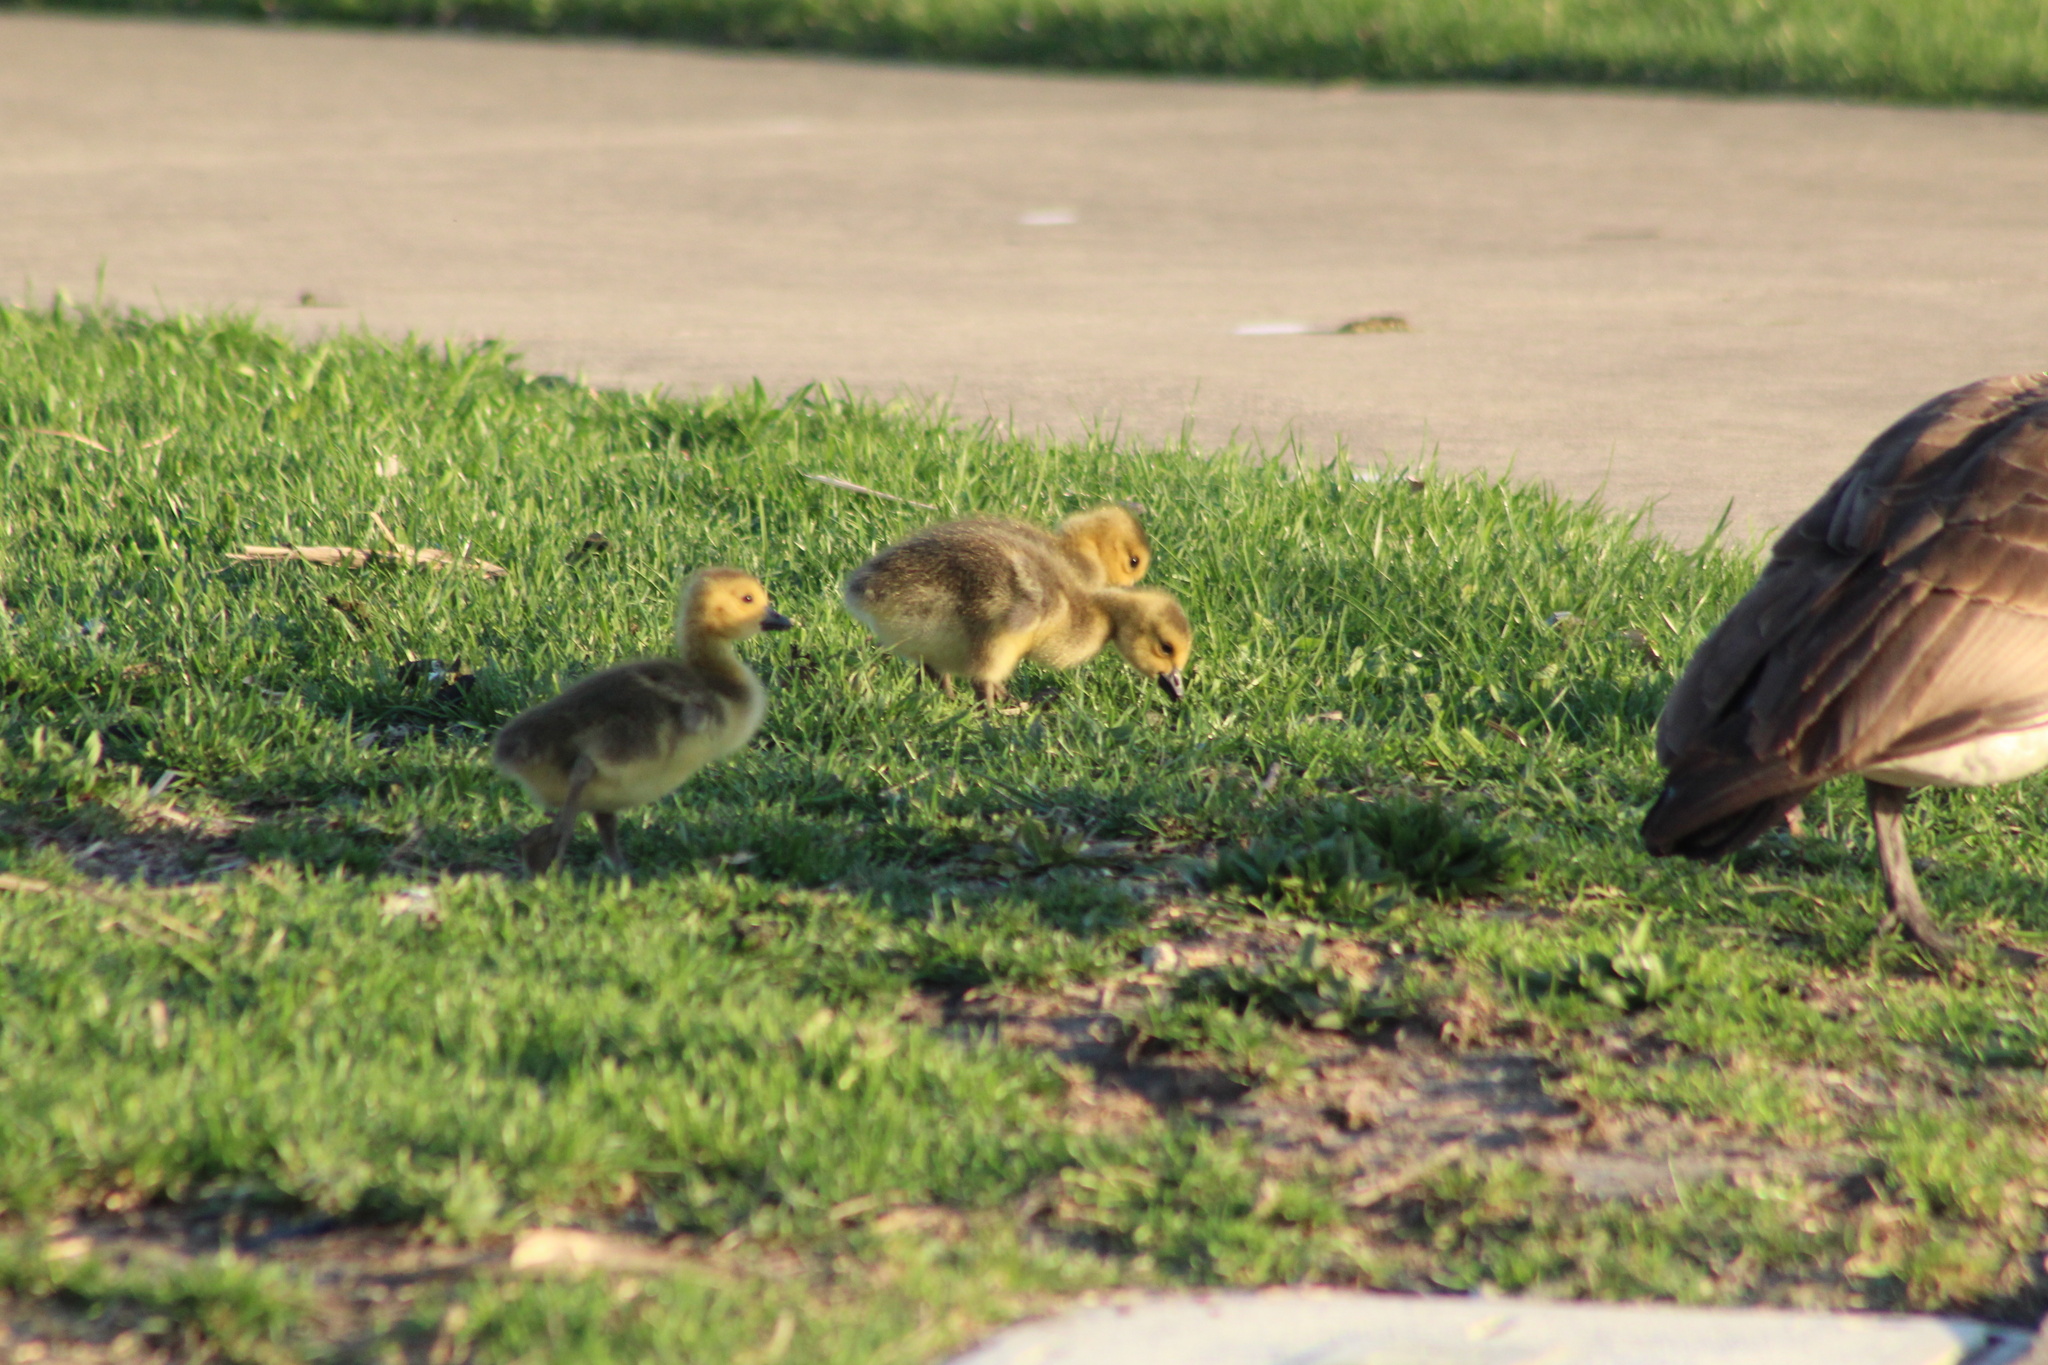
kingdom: Animalia
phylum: Chordata
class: Aves
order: Anseriformes
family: Anatidae
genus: Branta
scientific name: Branta canadensis
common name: Canada goose
